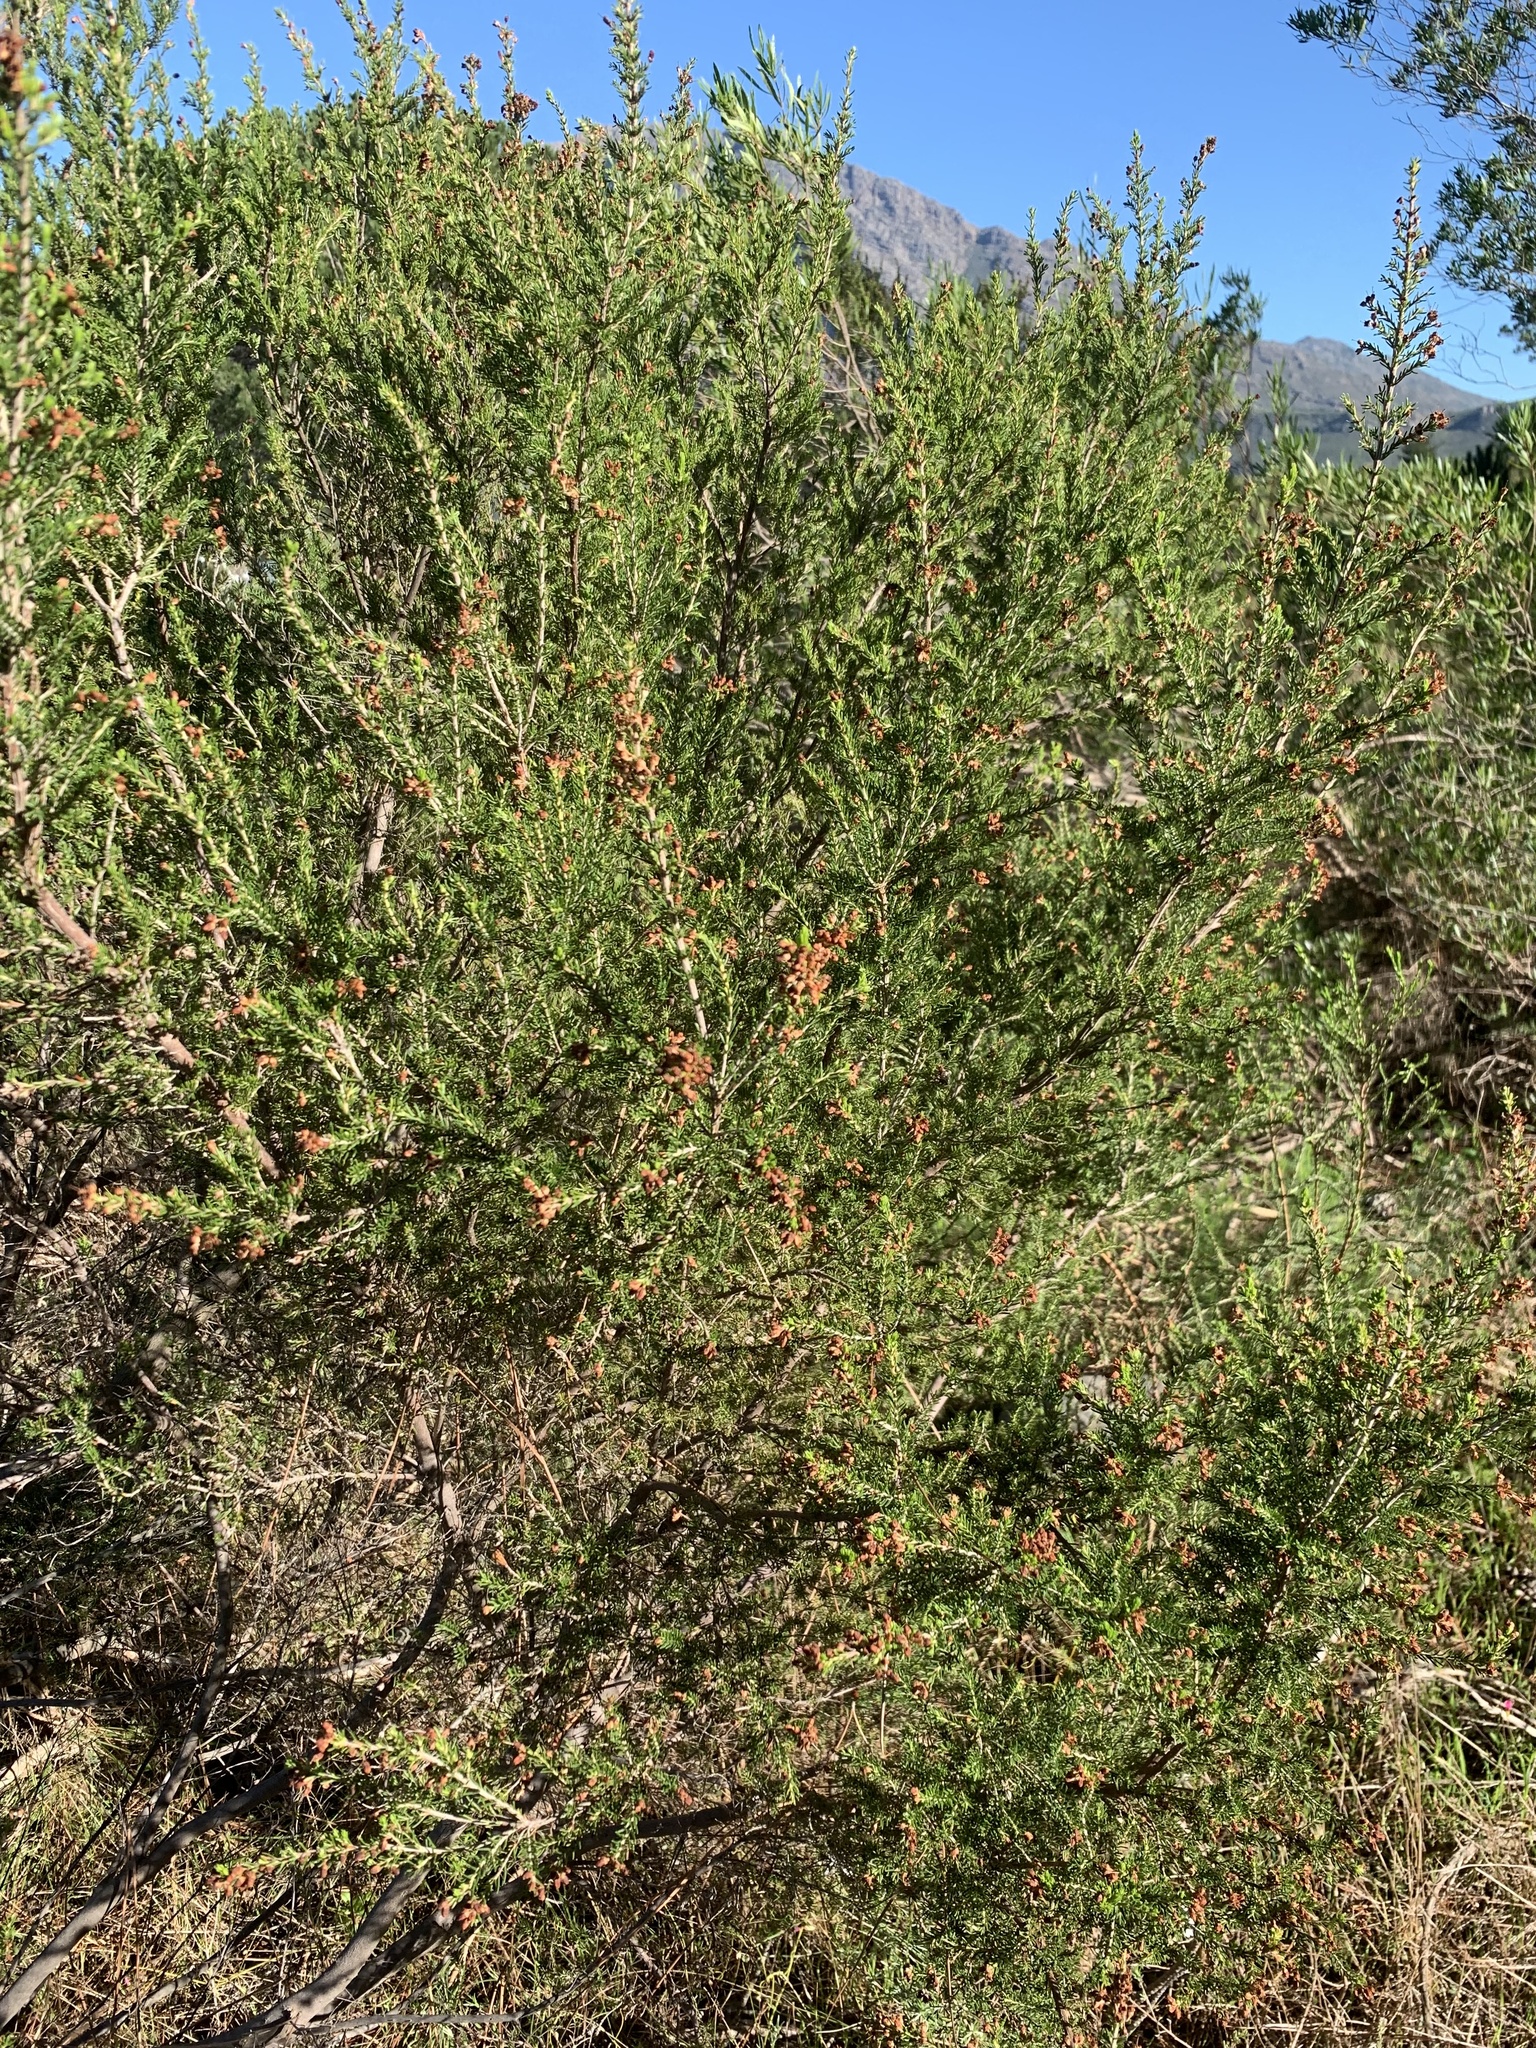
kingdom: Plantae
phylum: Tracheophyta
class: Magnoliopsida
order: Malvales
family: Thymelaeaceae
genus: Passerina
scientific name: Passerina corymbosa
